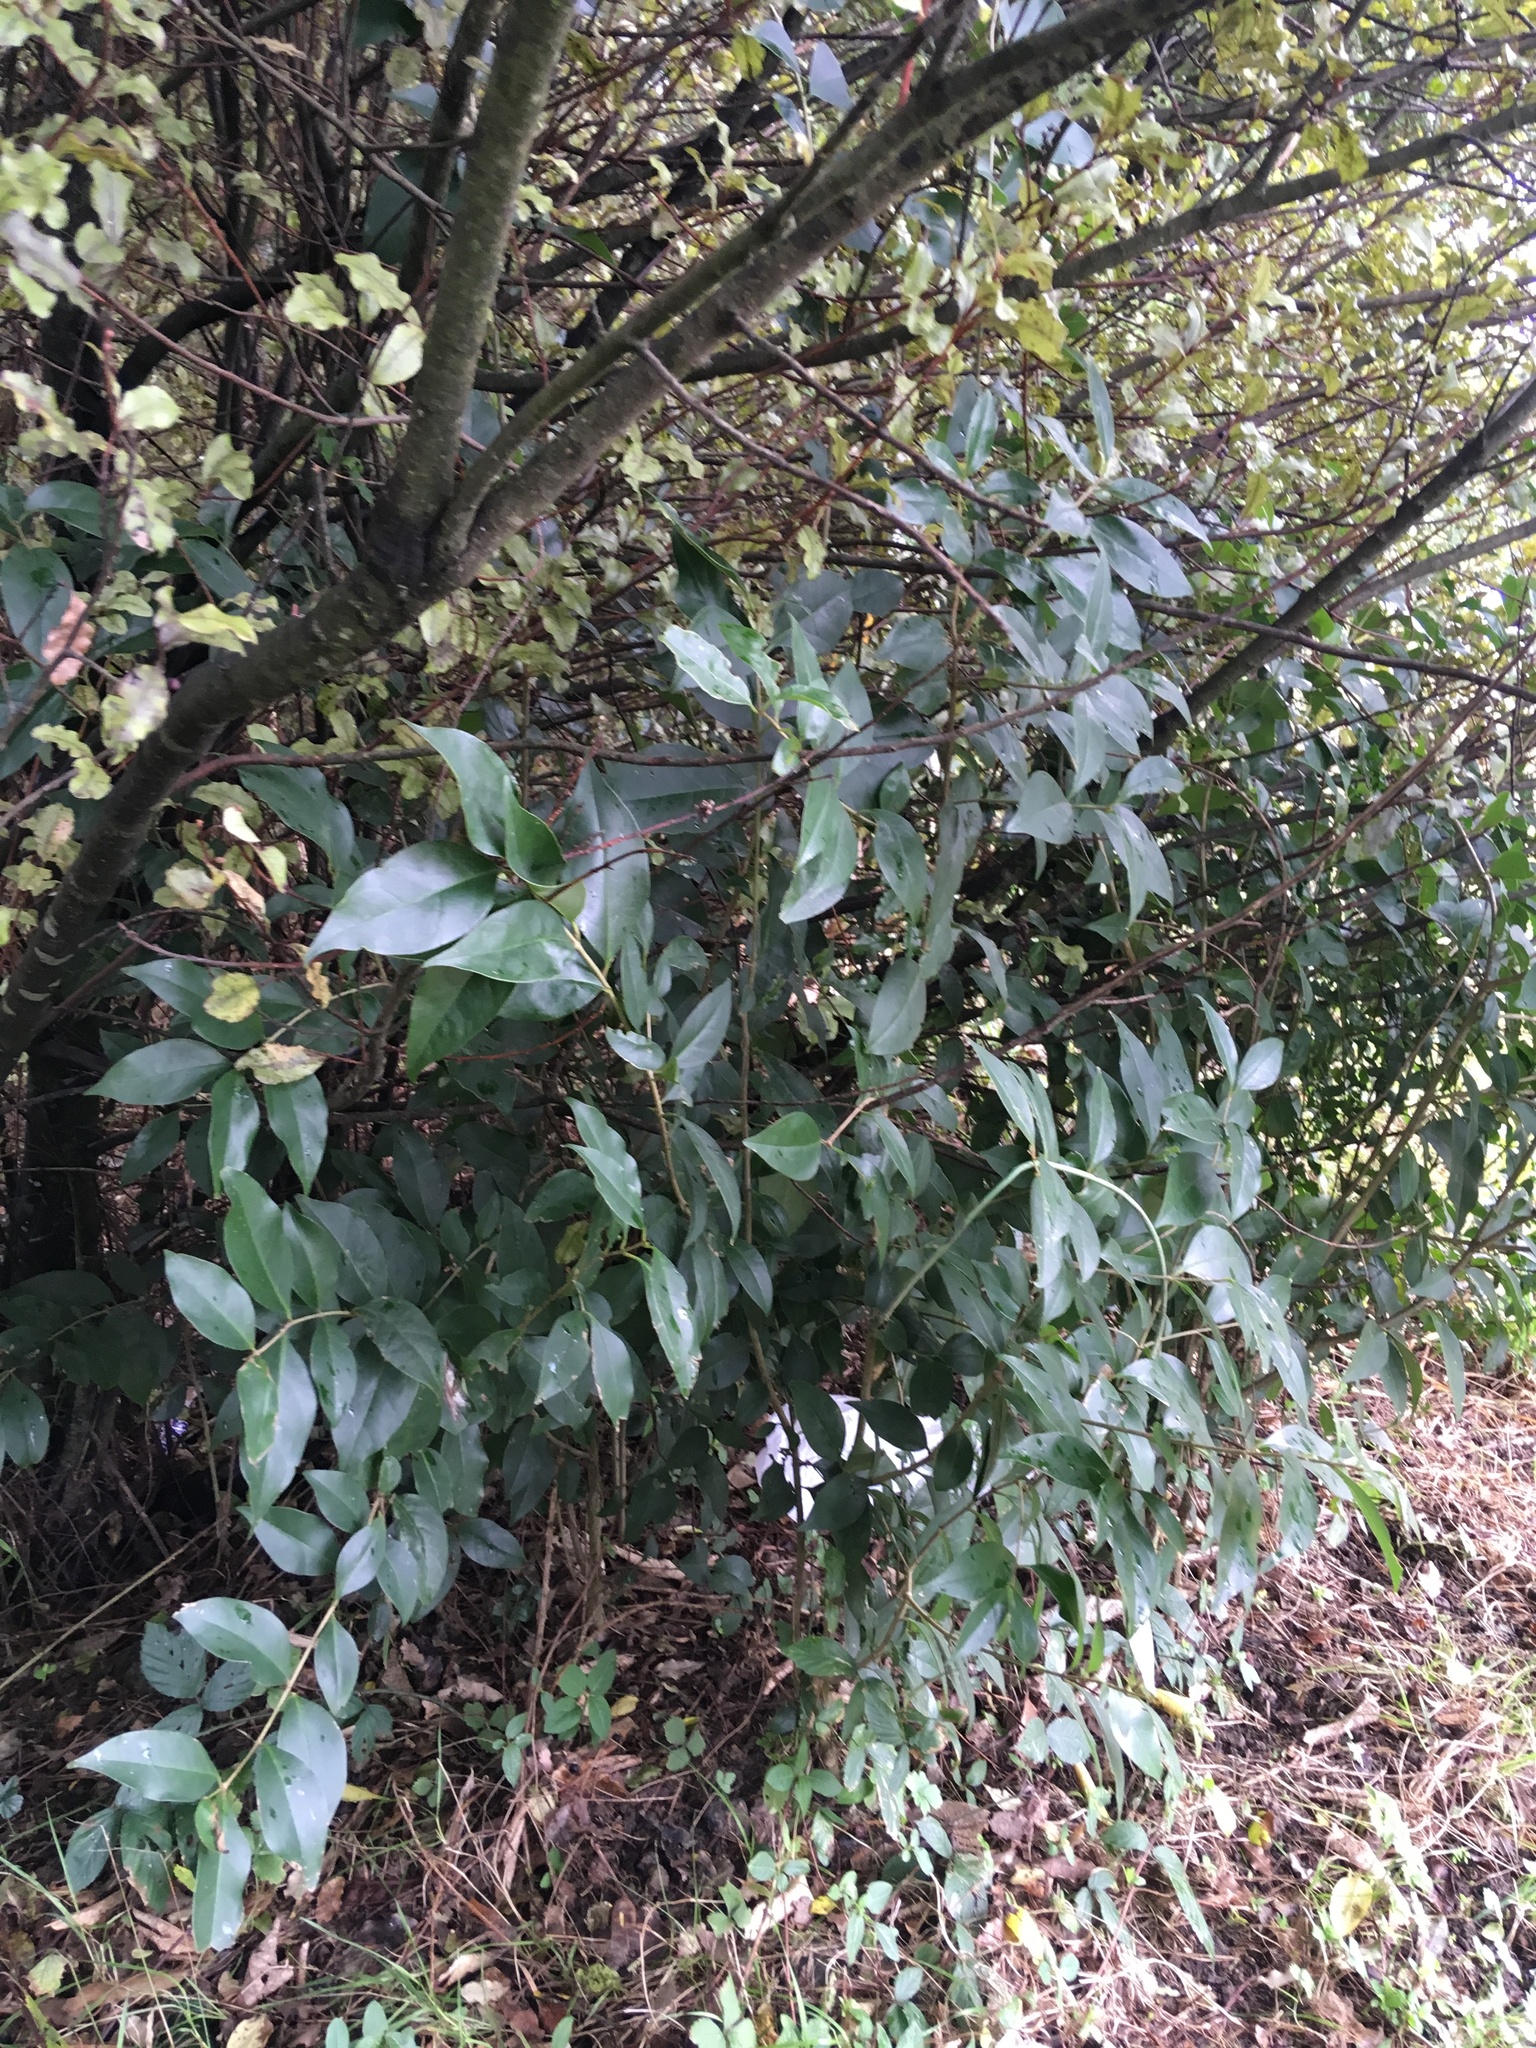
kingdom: Plantae
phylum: Tracheophyta
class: Magnoliopsida
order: Lamiales
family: Oleaceae
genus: Ligustrum
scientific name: Ligustrum lucidum
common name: Glossy privet
